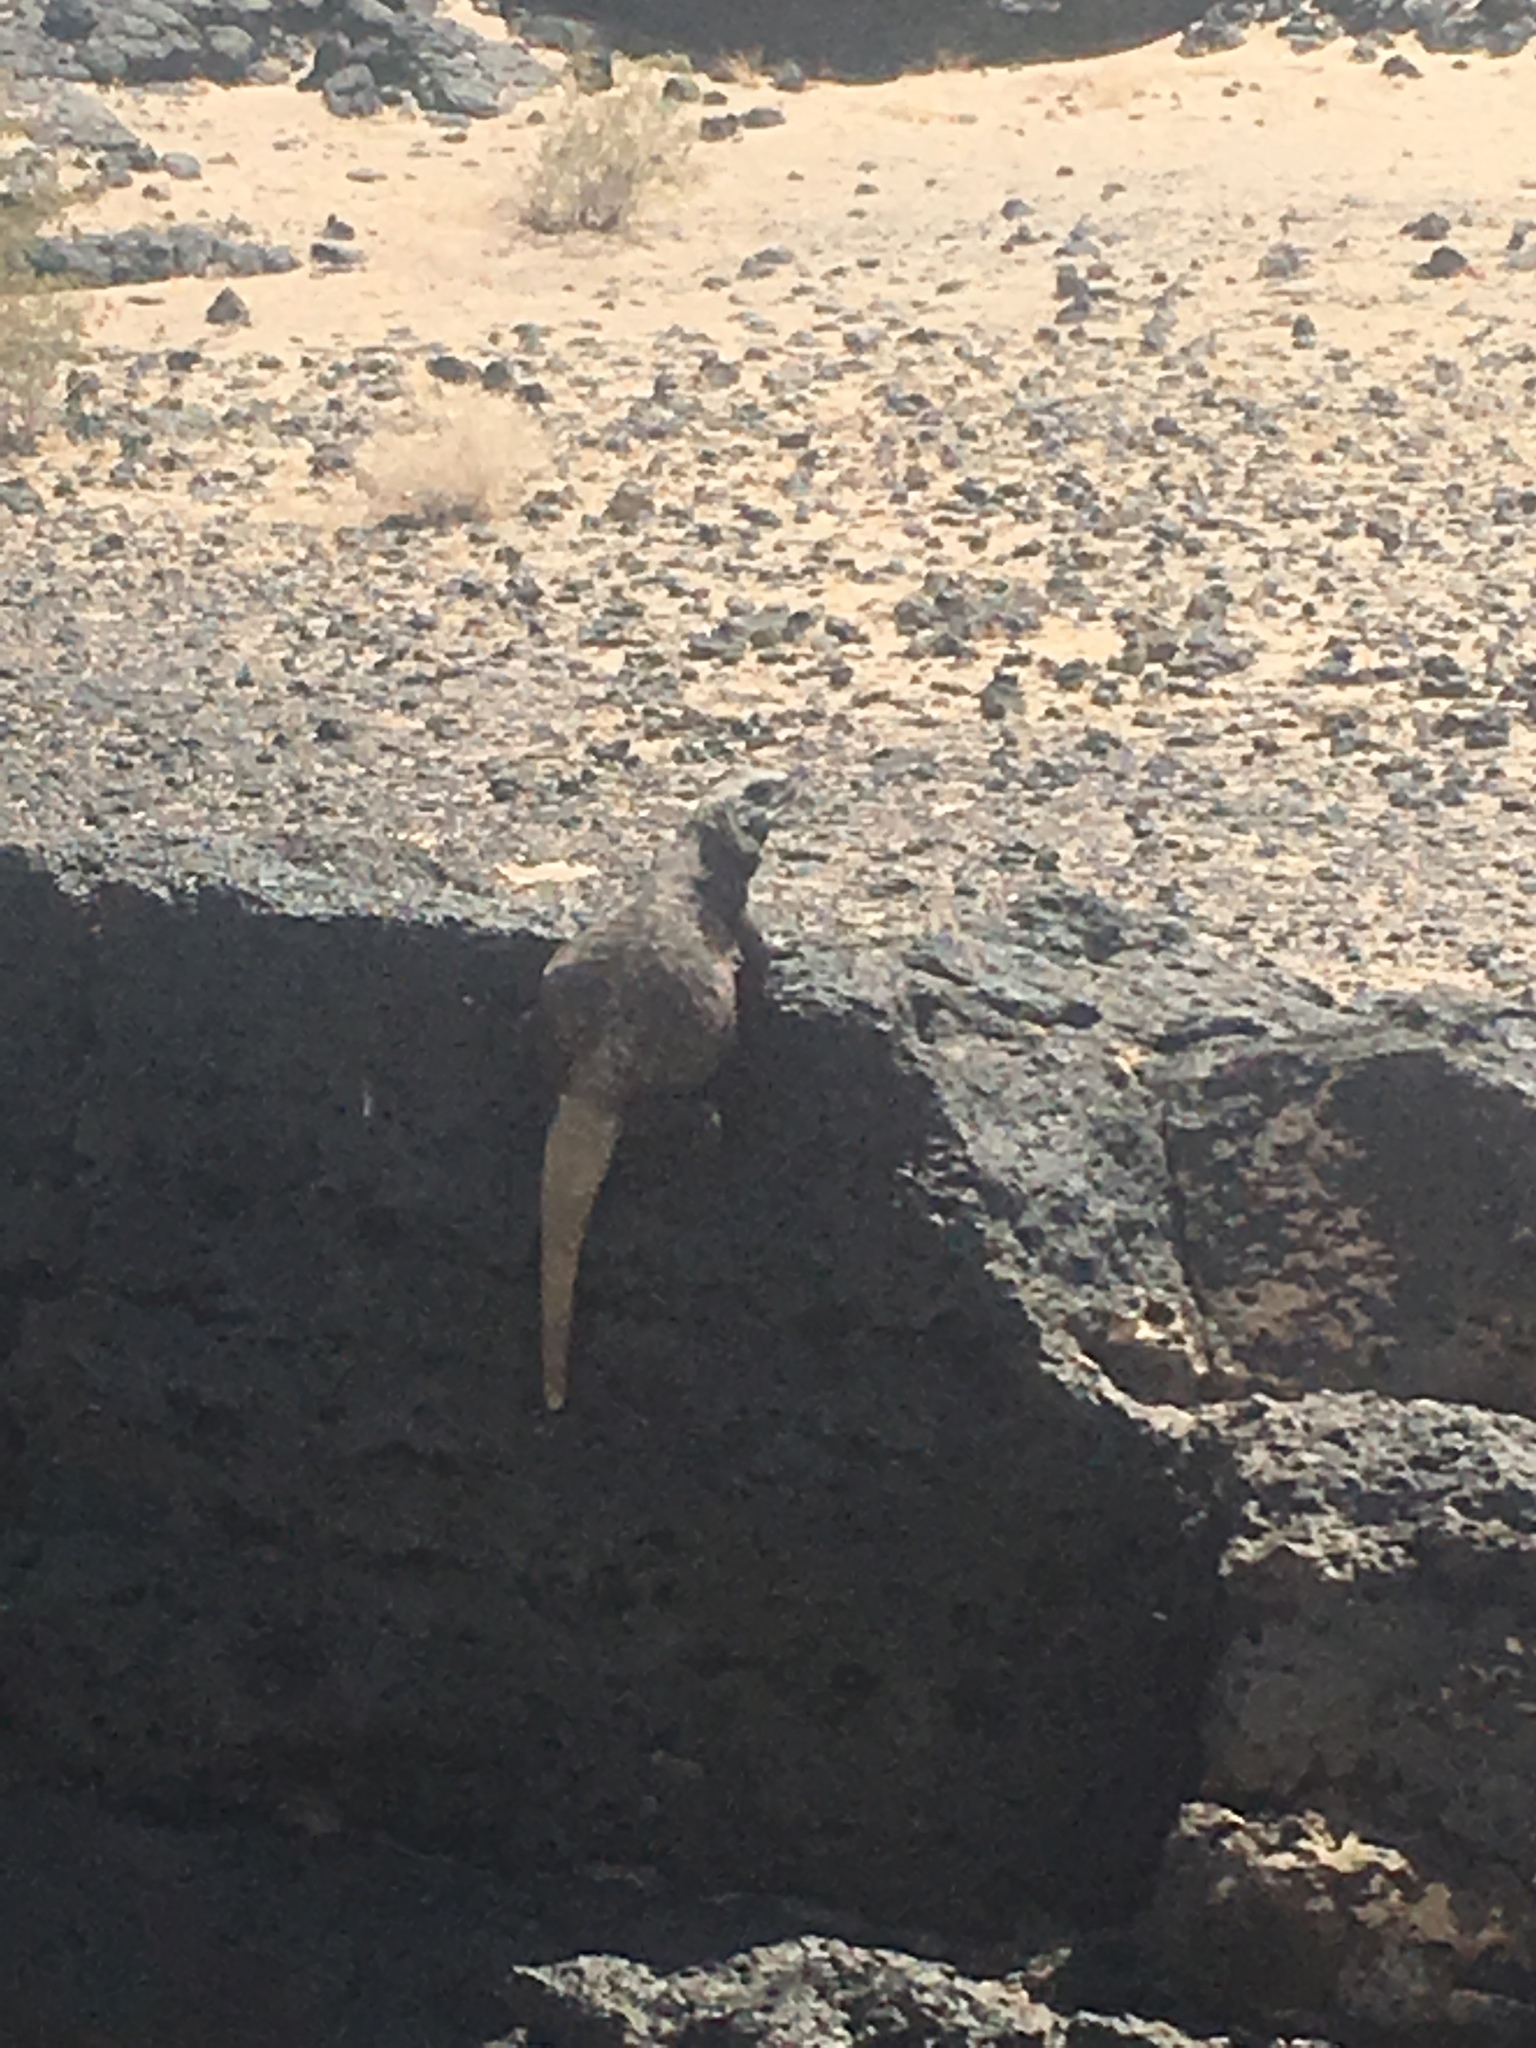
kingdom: Animalia
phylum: Chordata
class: Squamata
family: Iguanidae
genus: Sauromalus
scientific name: Sauromalus ater
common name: Northern chuckwalla
